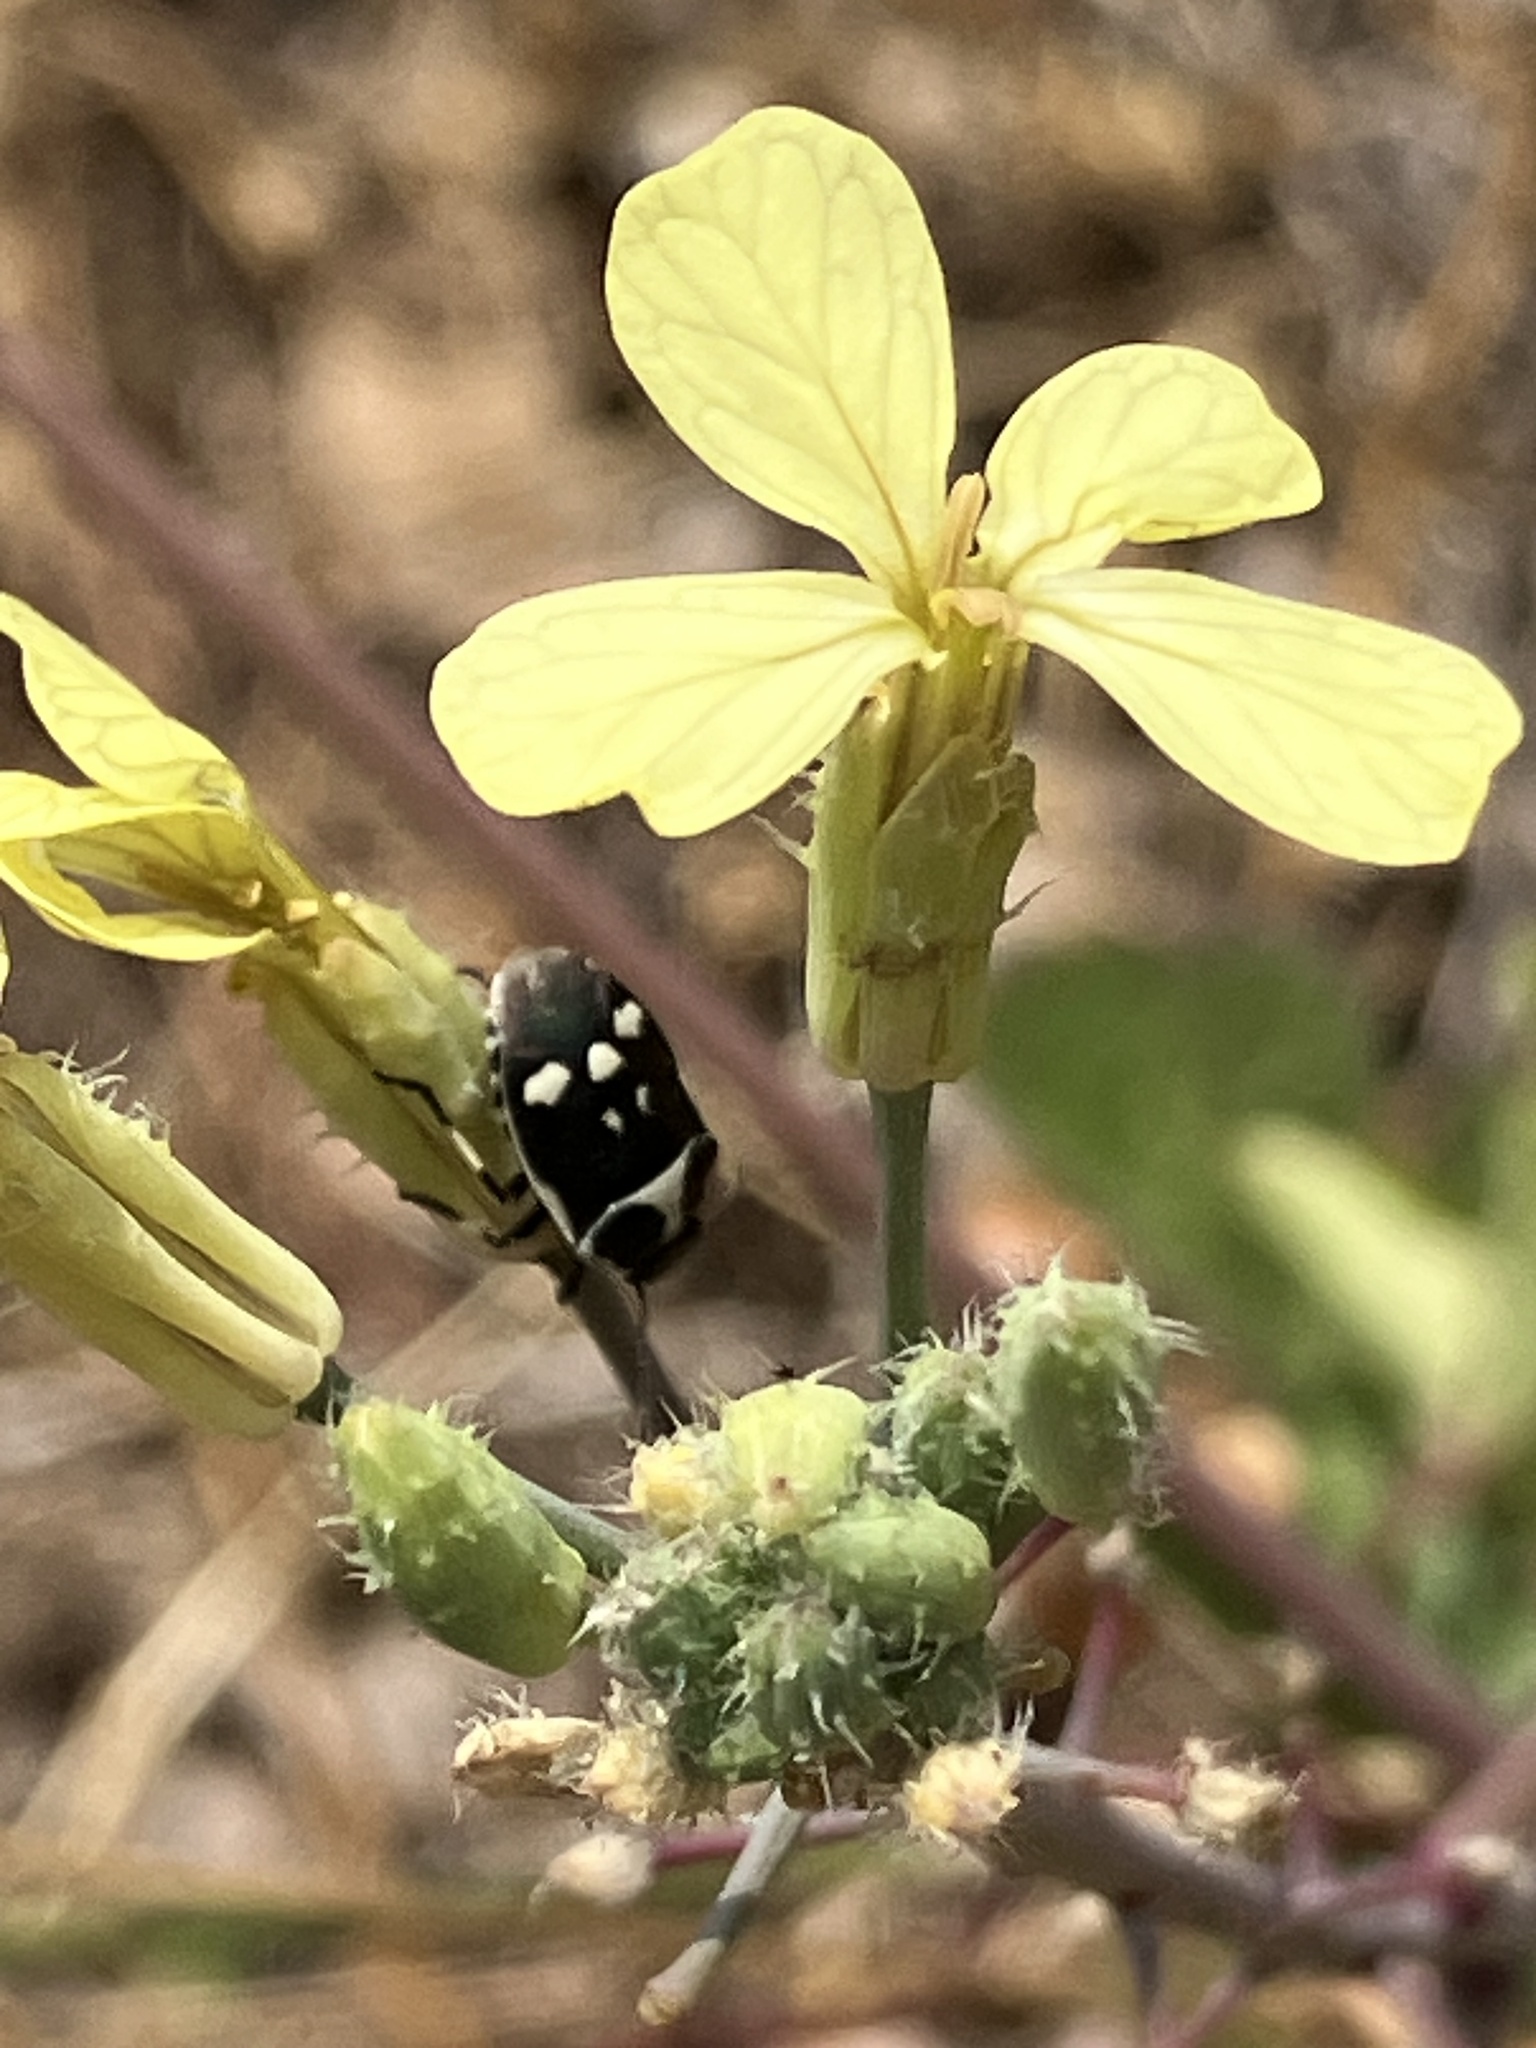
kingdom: Animalia
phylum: Arthropoda
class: Insecta
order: Hemiptera
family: Pentatomidae
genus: Eurydema
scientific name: Eurydema oleracea
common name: Cabbage bug
